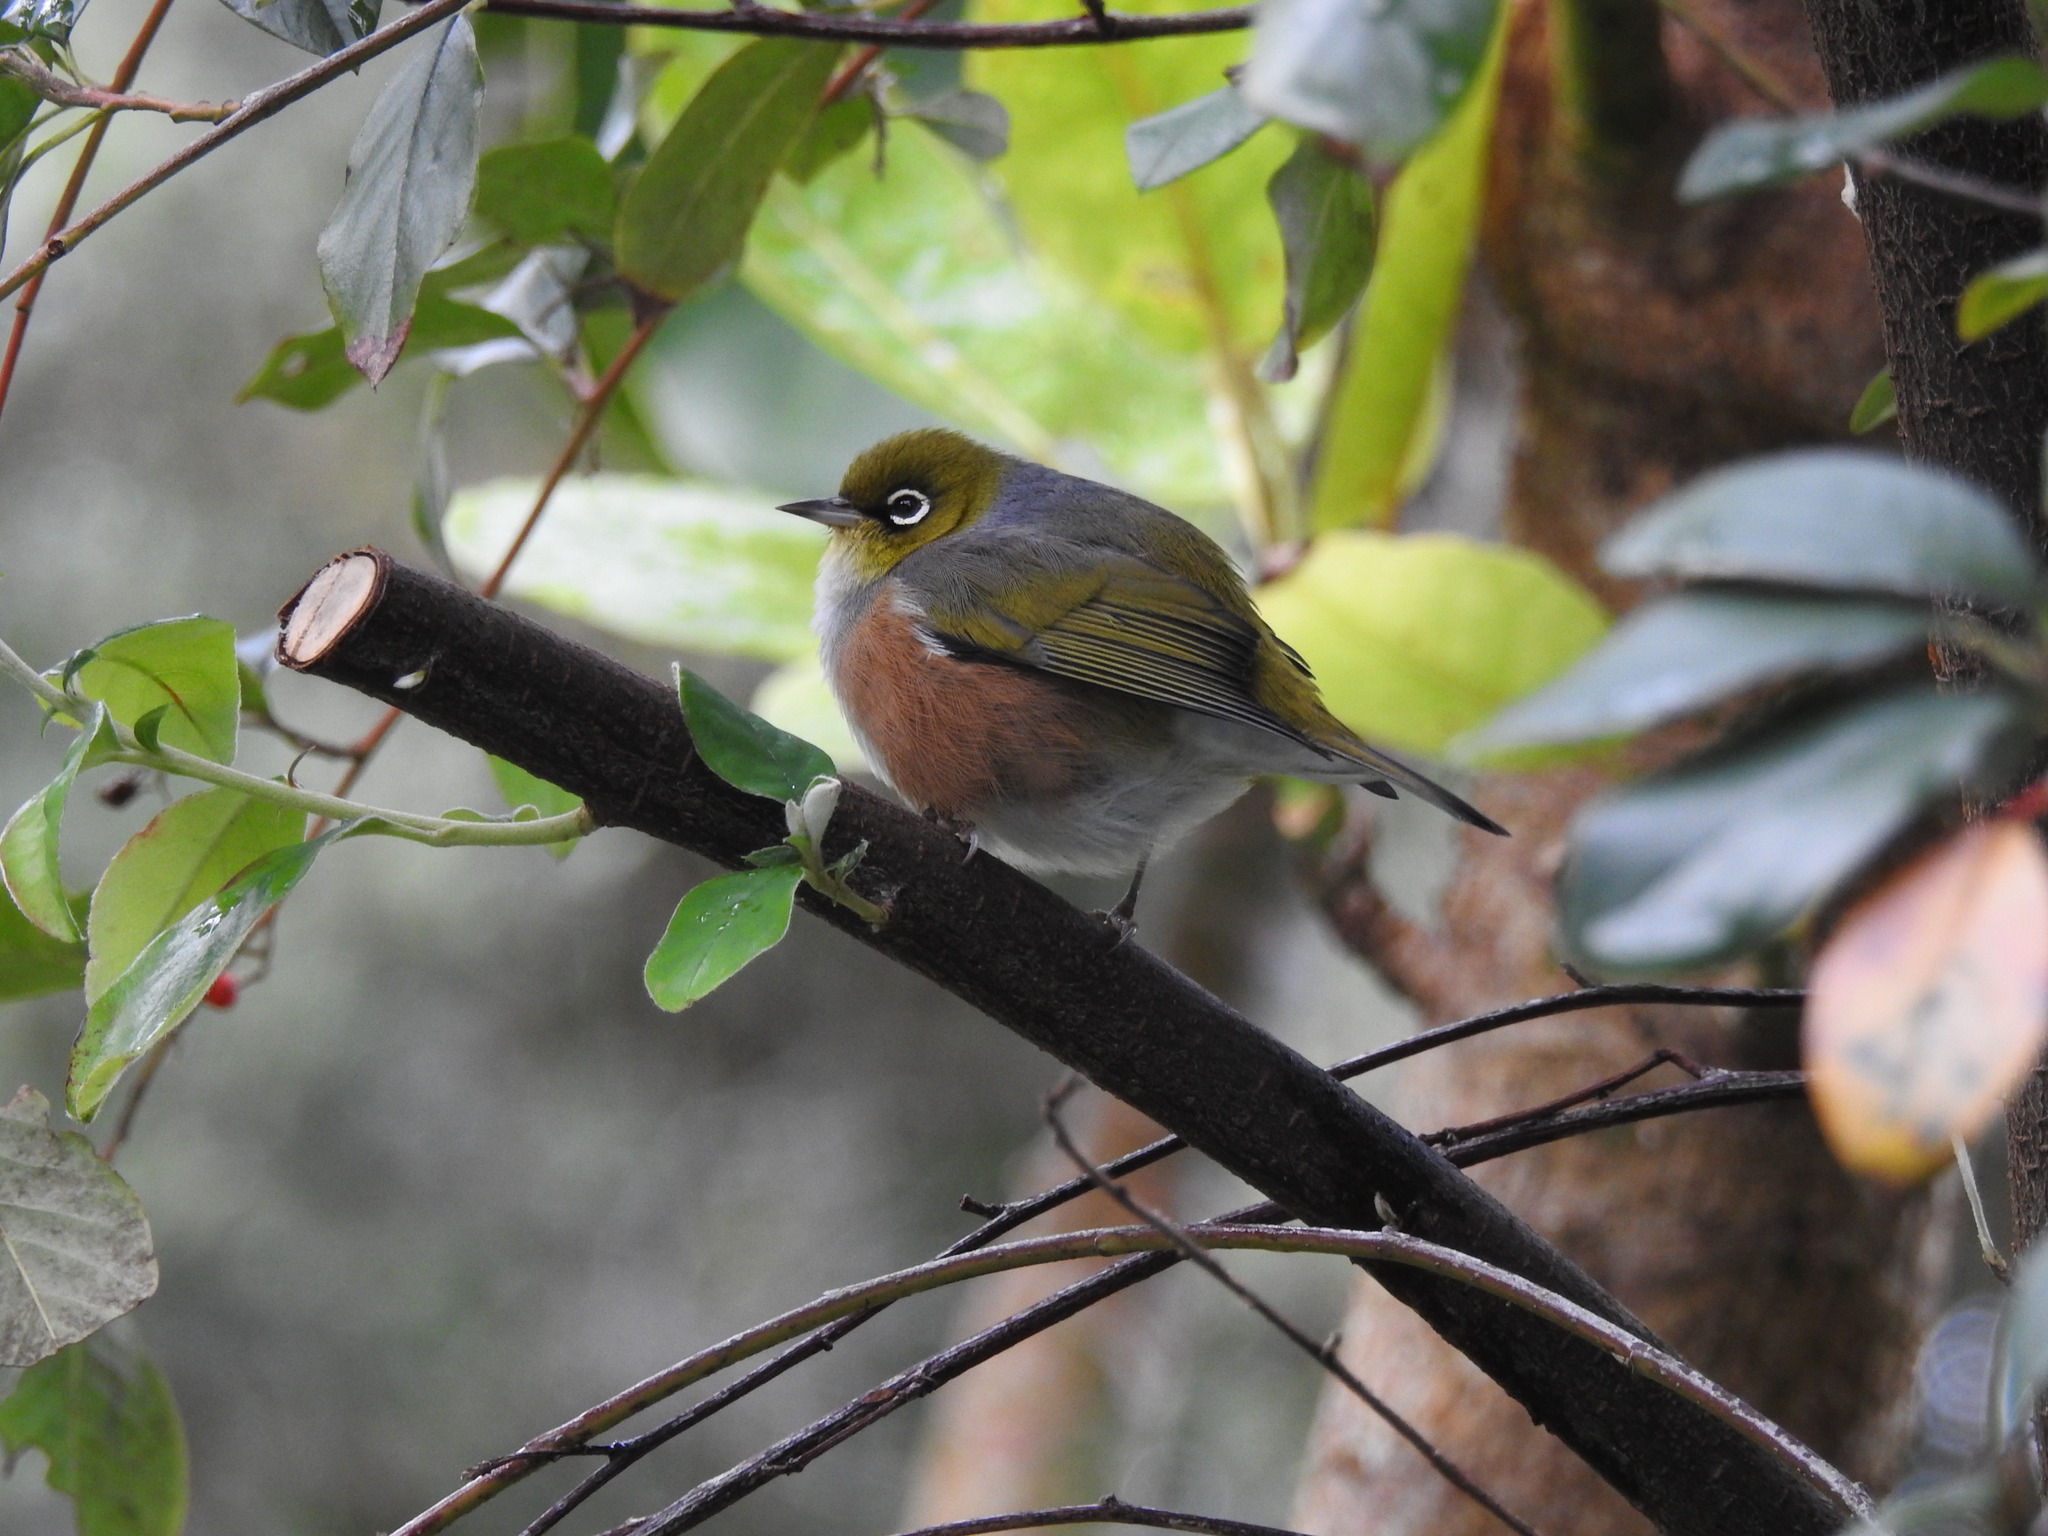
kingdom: Animalia
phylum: Chordata
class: Aves
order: Passeriformes
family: Zosteropidae
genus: Zosterops
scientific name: Zosterops lateralis
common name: Silvereye
